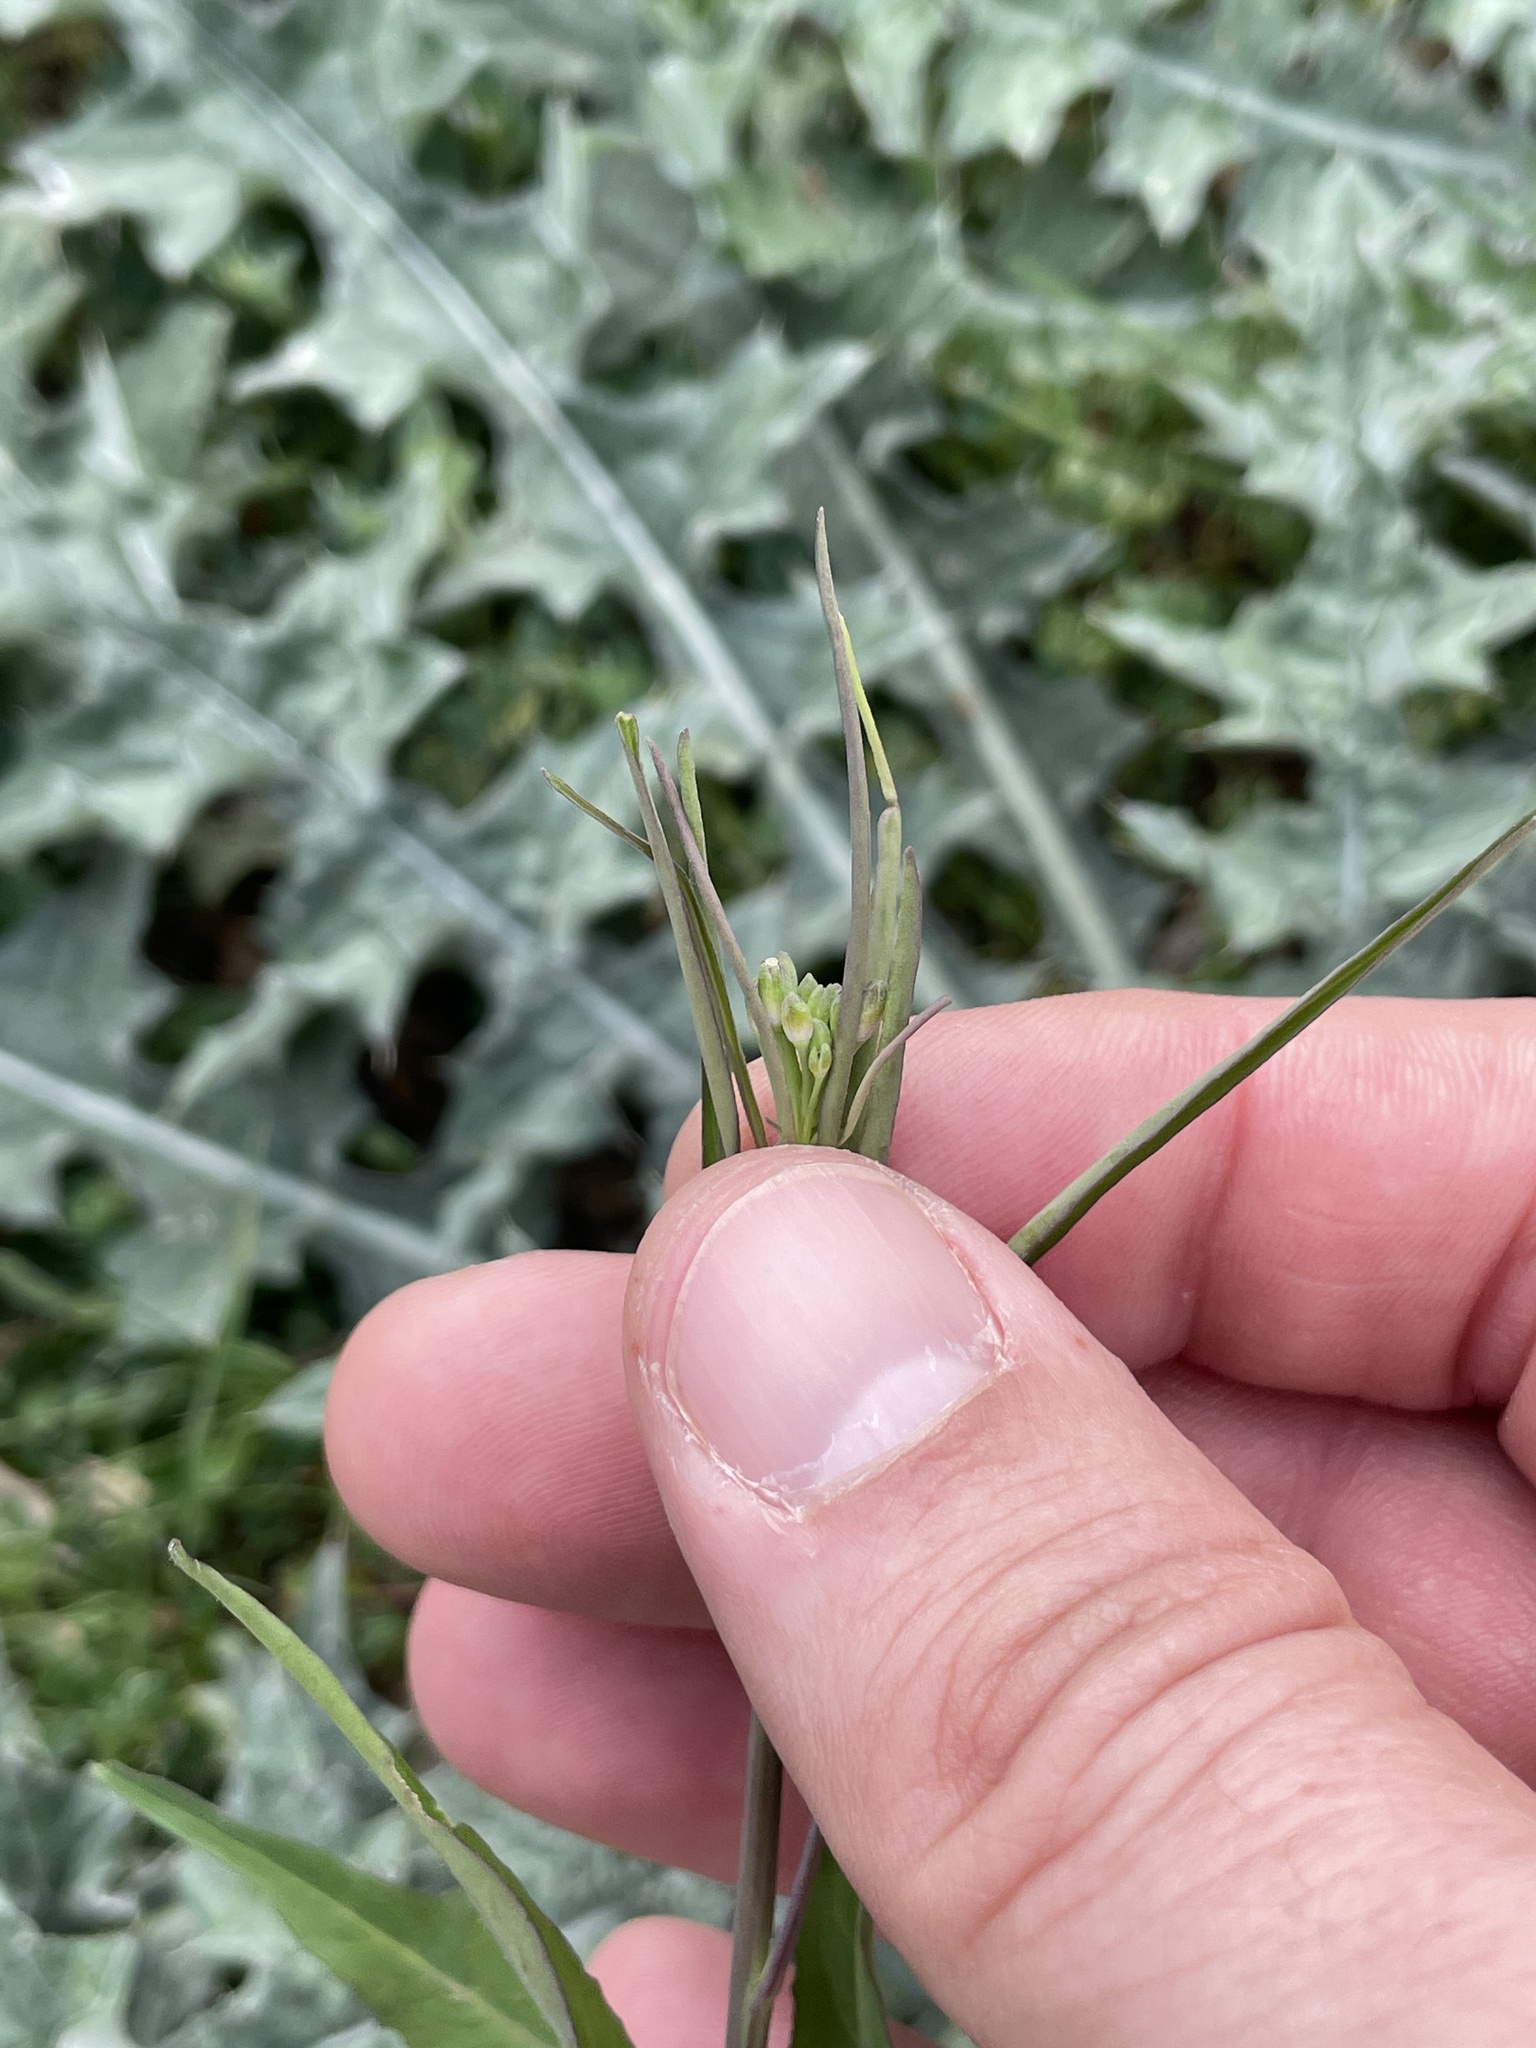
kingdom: Plantae
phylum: Tracheophyta
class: Magnoliopsida
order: Brassicales
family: Brassicaceae
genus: Streptanthus
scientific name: Streptanthus petiolaris
